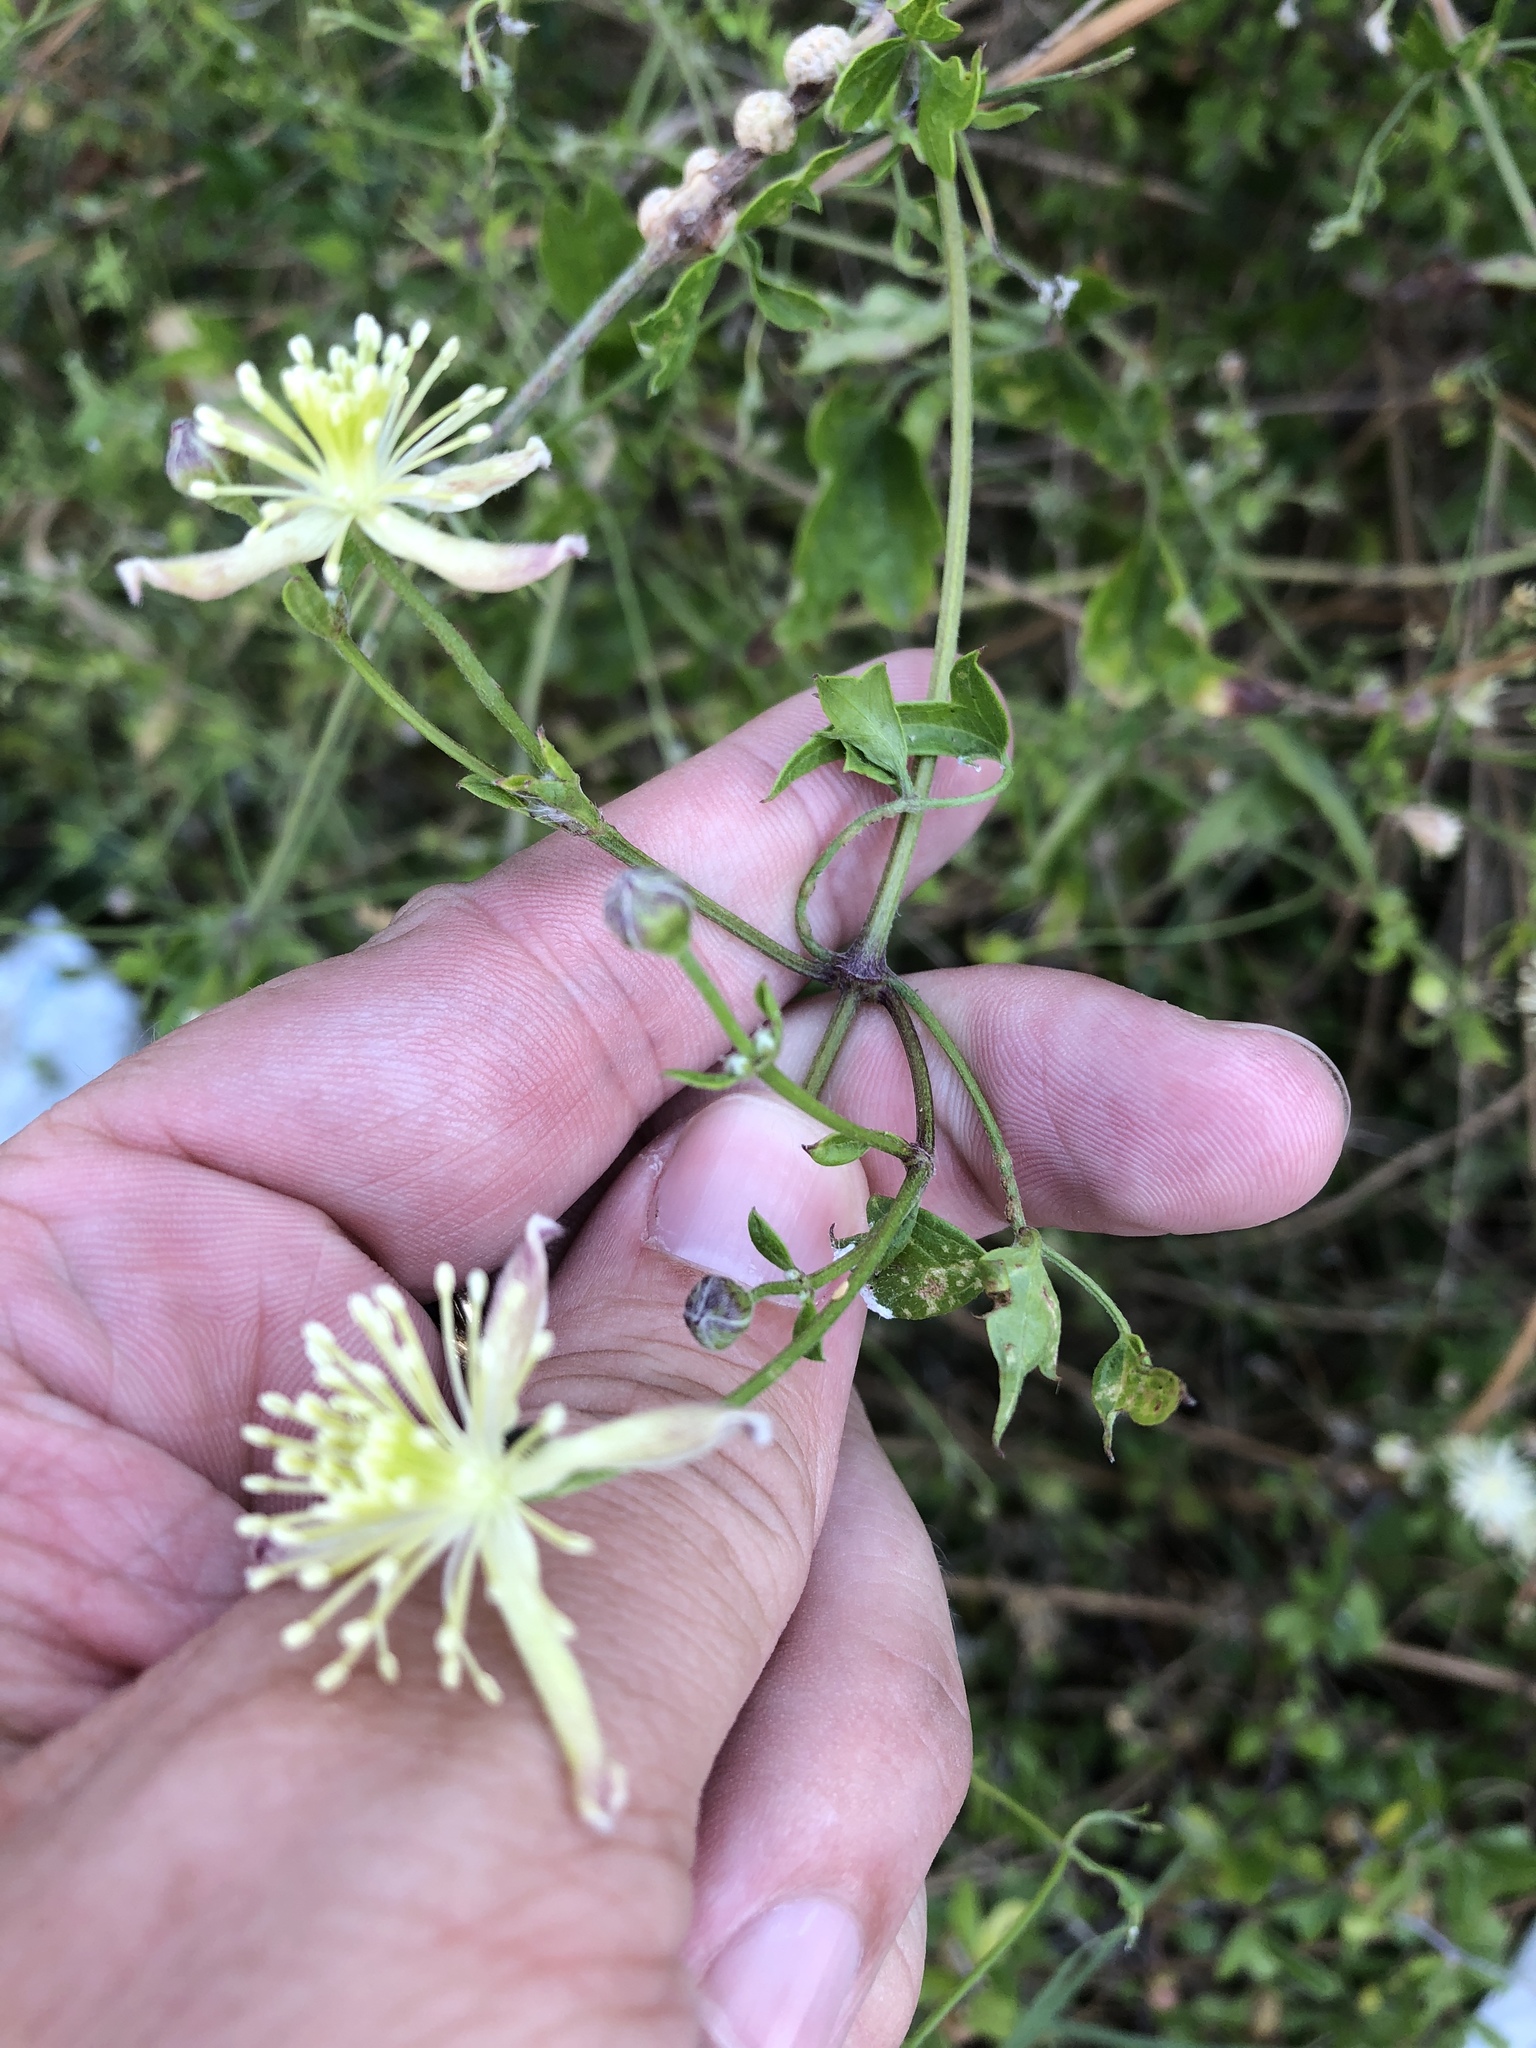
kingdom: Plantae
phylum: Tracheophyta
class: Magnoliopsida
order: Ranunculales
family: Ranunculaceae
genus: Clematis
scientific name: Clematis drummondii
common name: Texas virgin's bower
